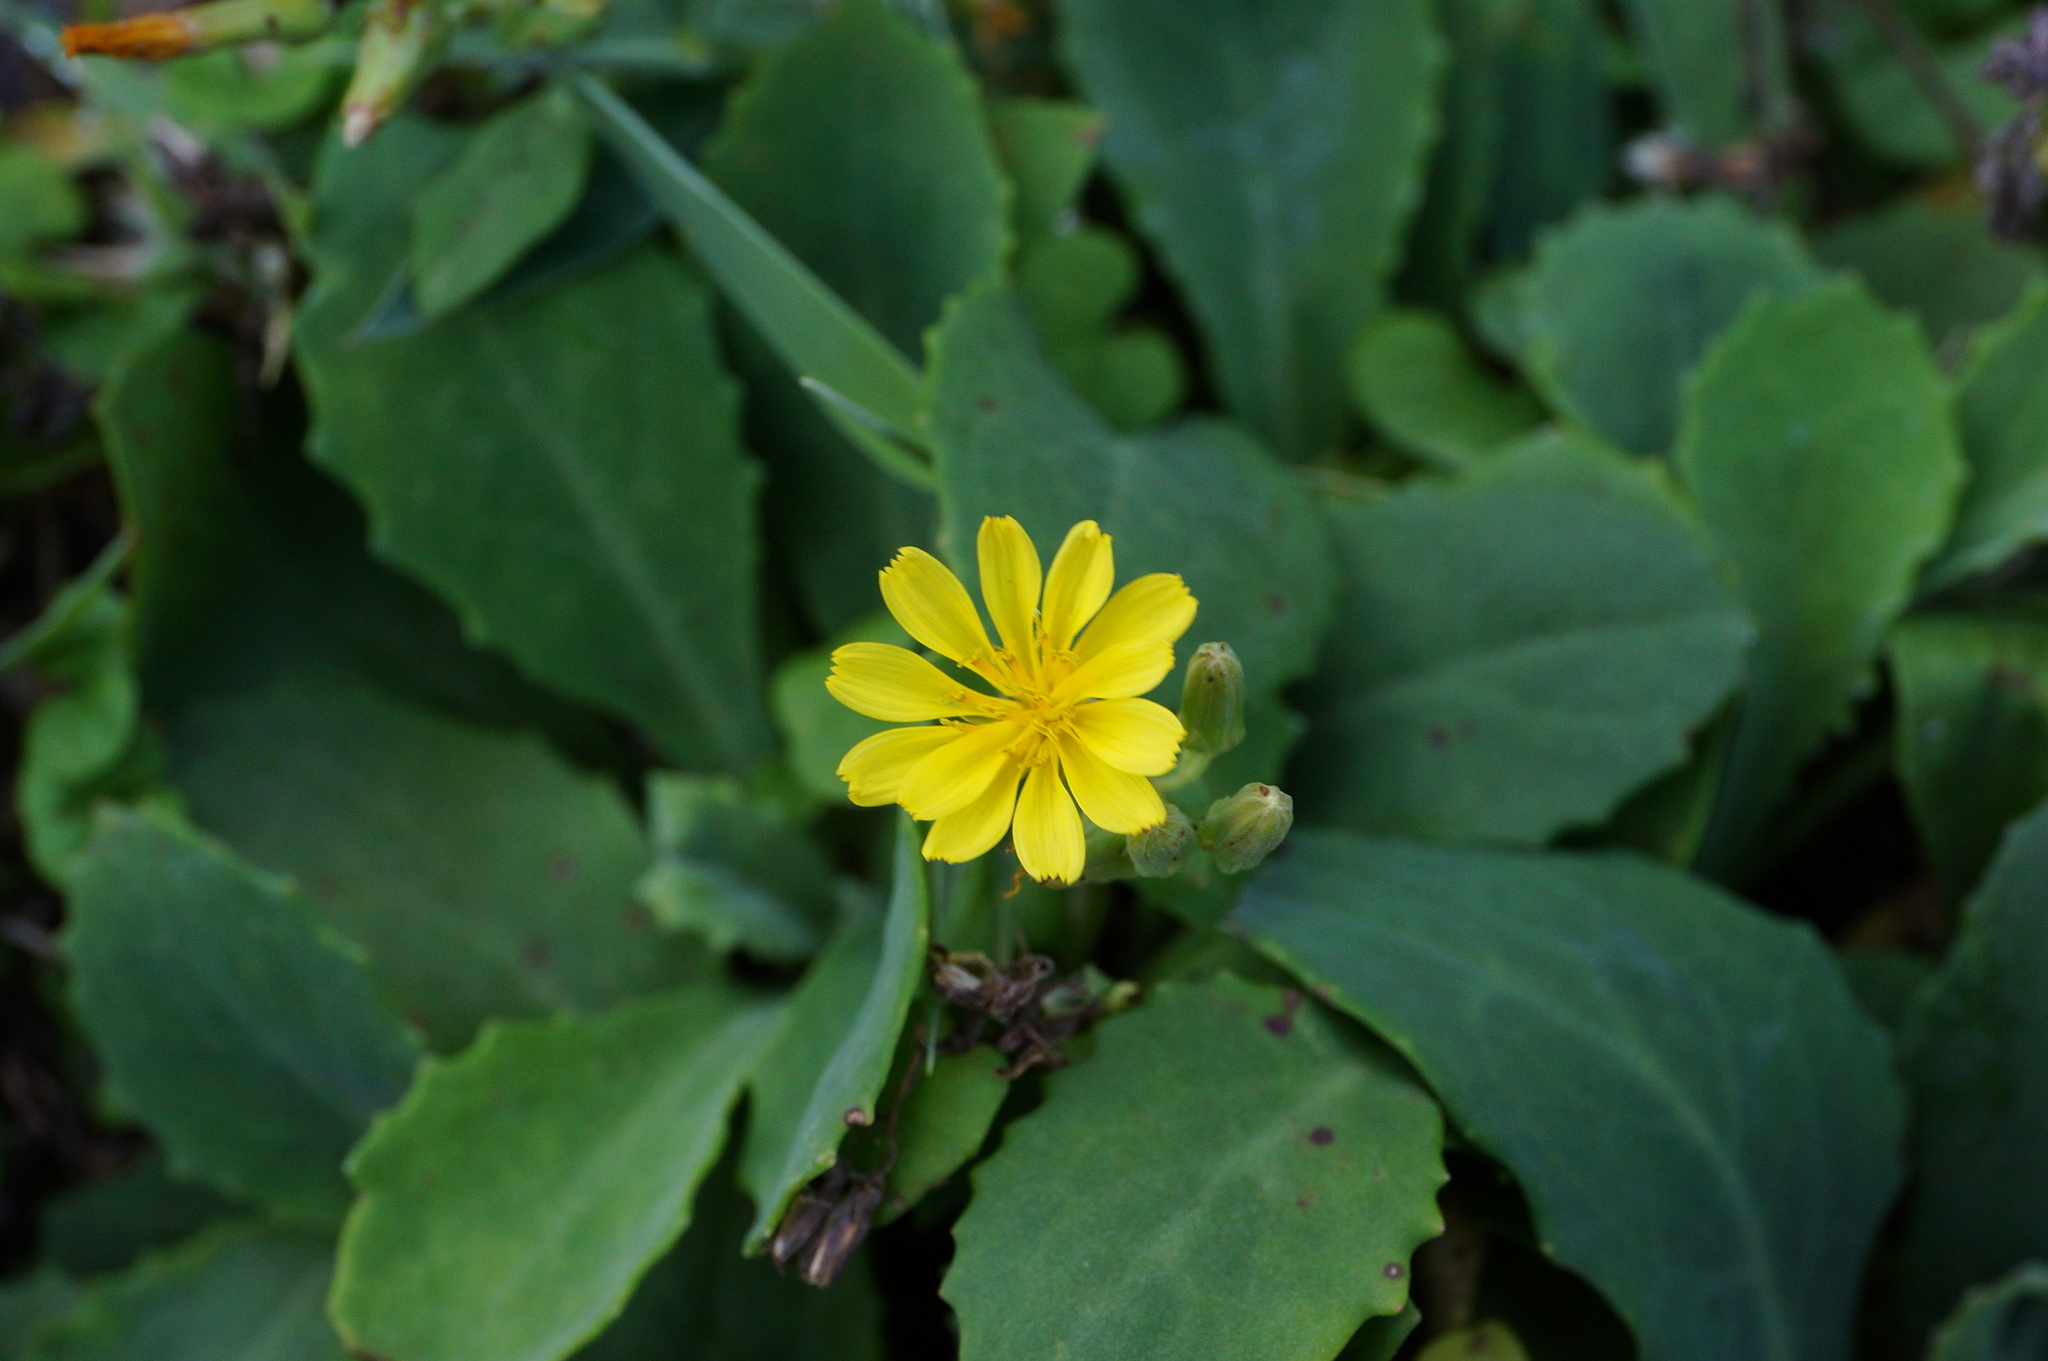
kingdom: Plantae
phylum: Tracheophyta
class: Magnoliopsida
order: Asterales
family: Asteraceae
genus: Crepidiastrum
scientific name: Crepidiastrum lanceolatum
